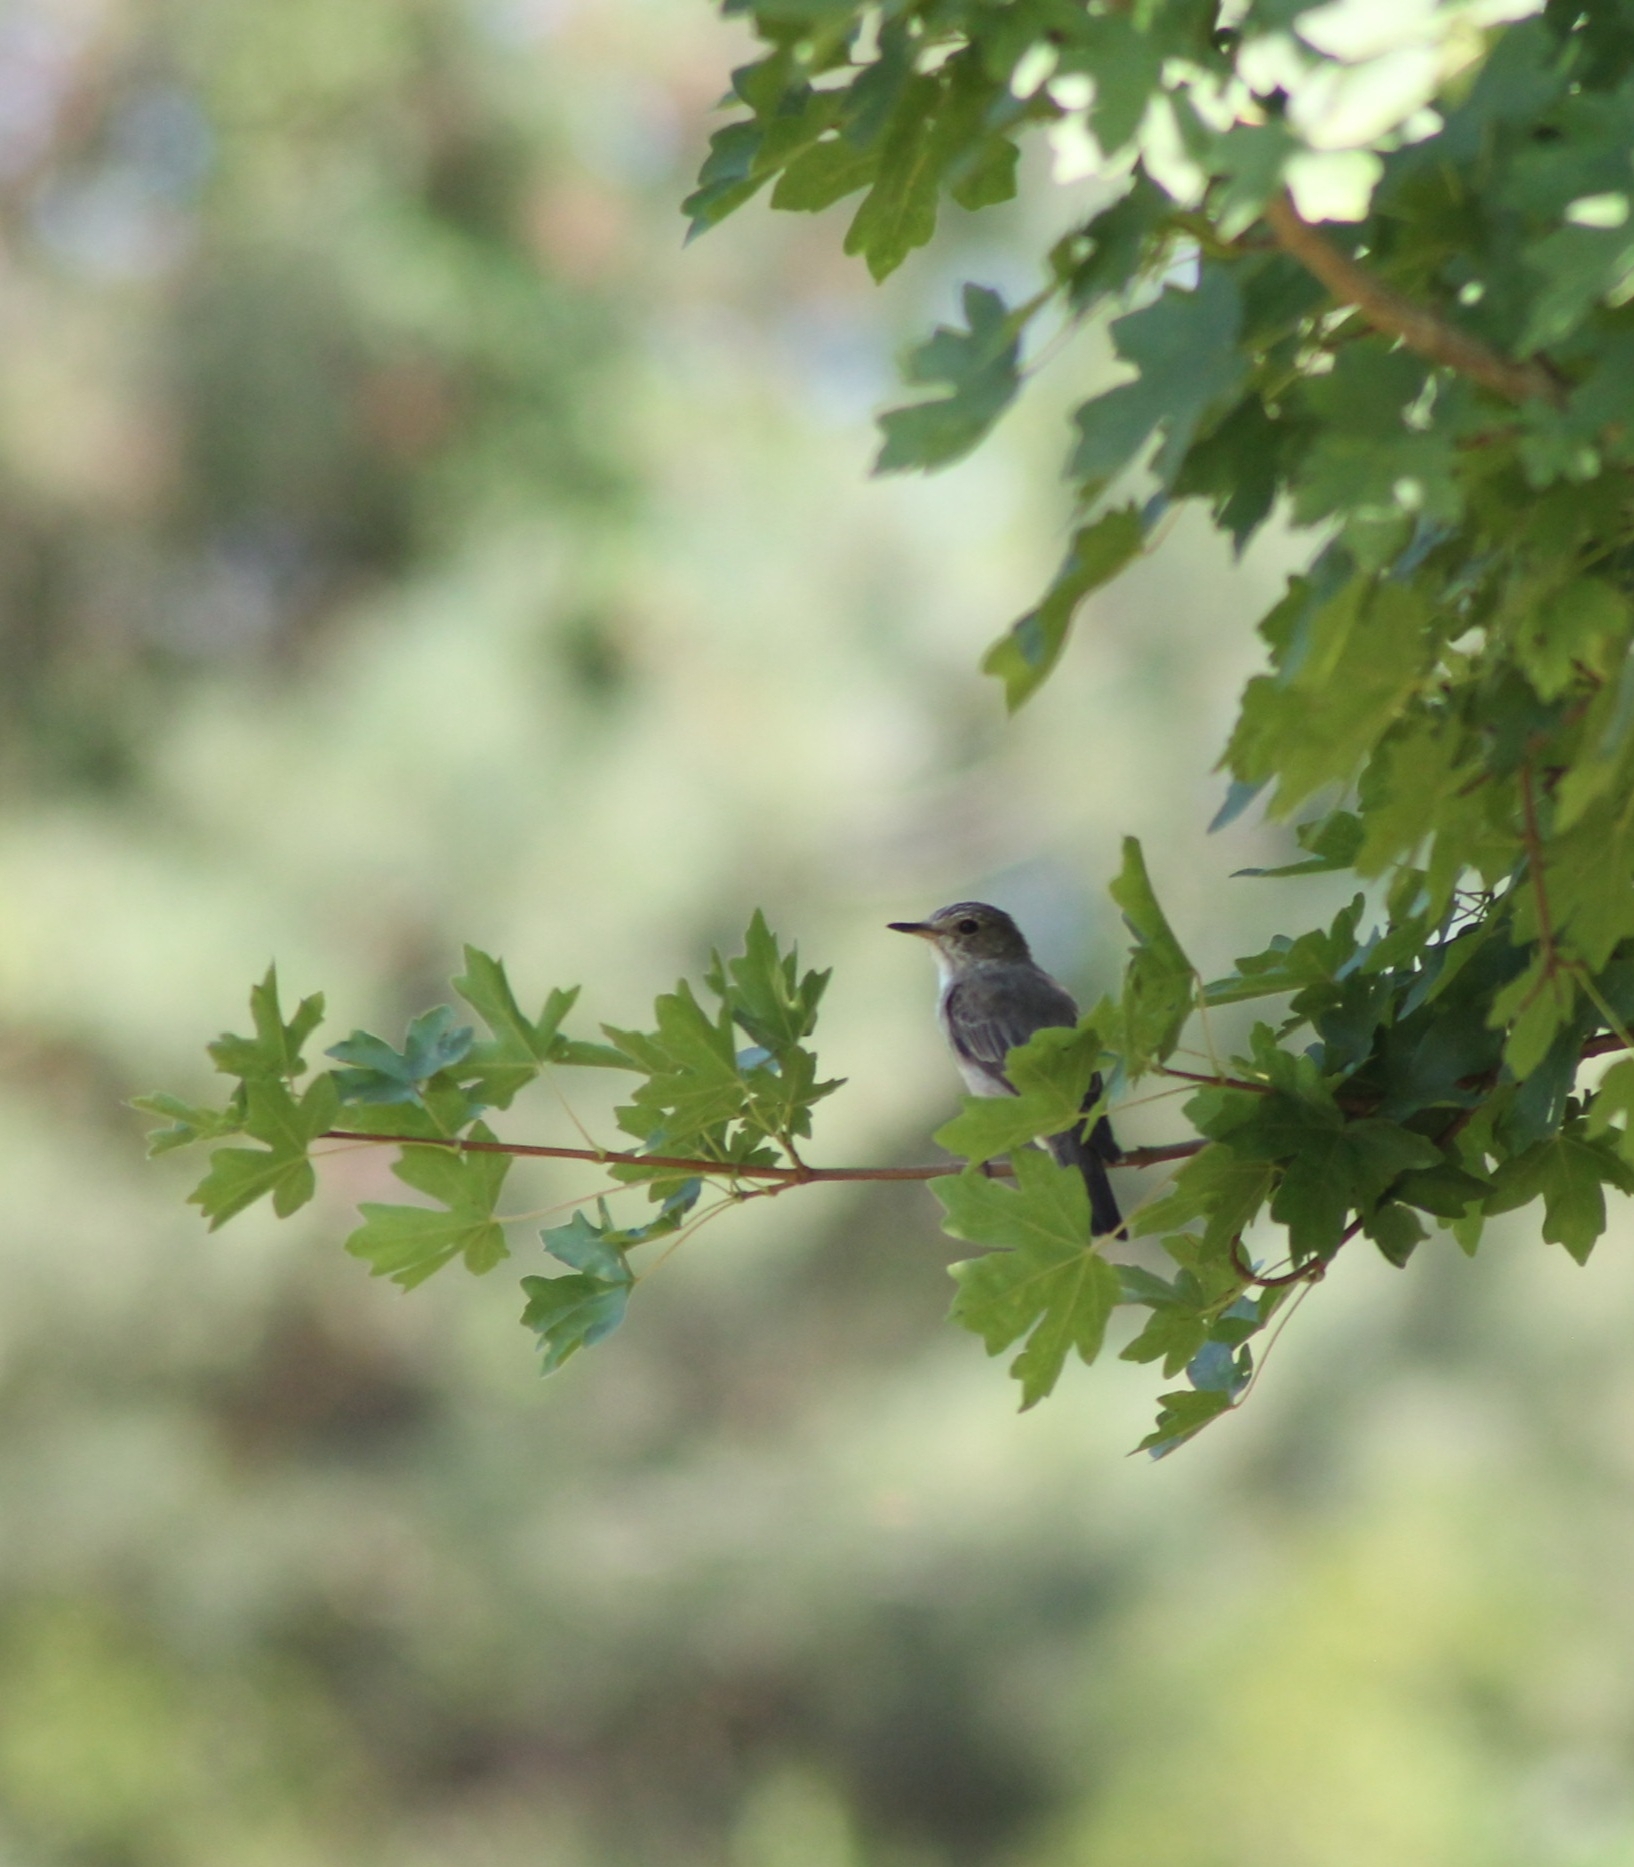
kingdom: Animalia
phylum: Chordata
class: Aves
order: Passeriformes
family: Muscicapidae
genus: Muscicapa
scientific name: Muscicapa striata
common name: Spotted flycatcher
